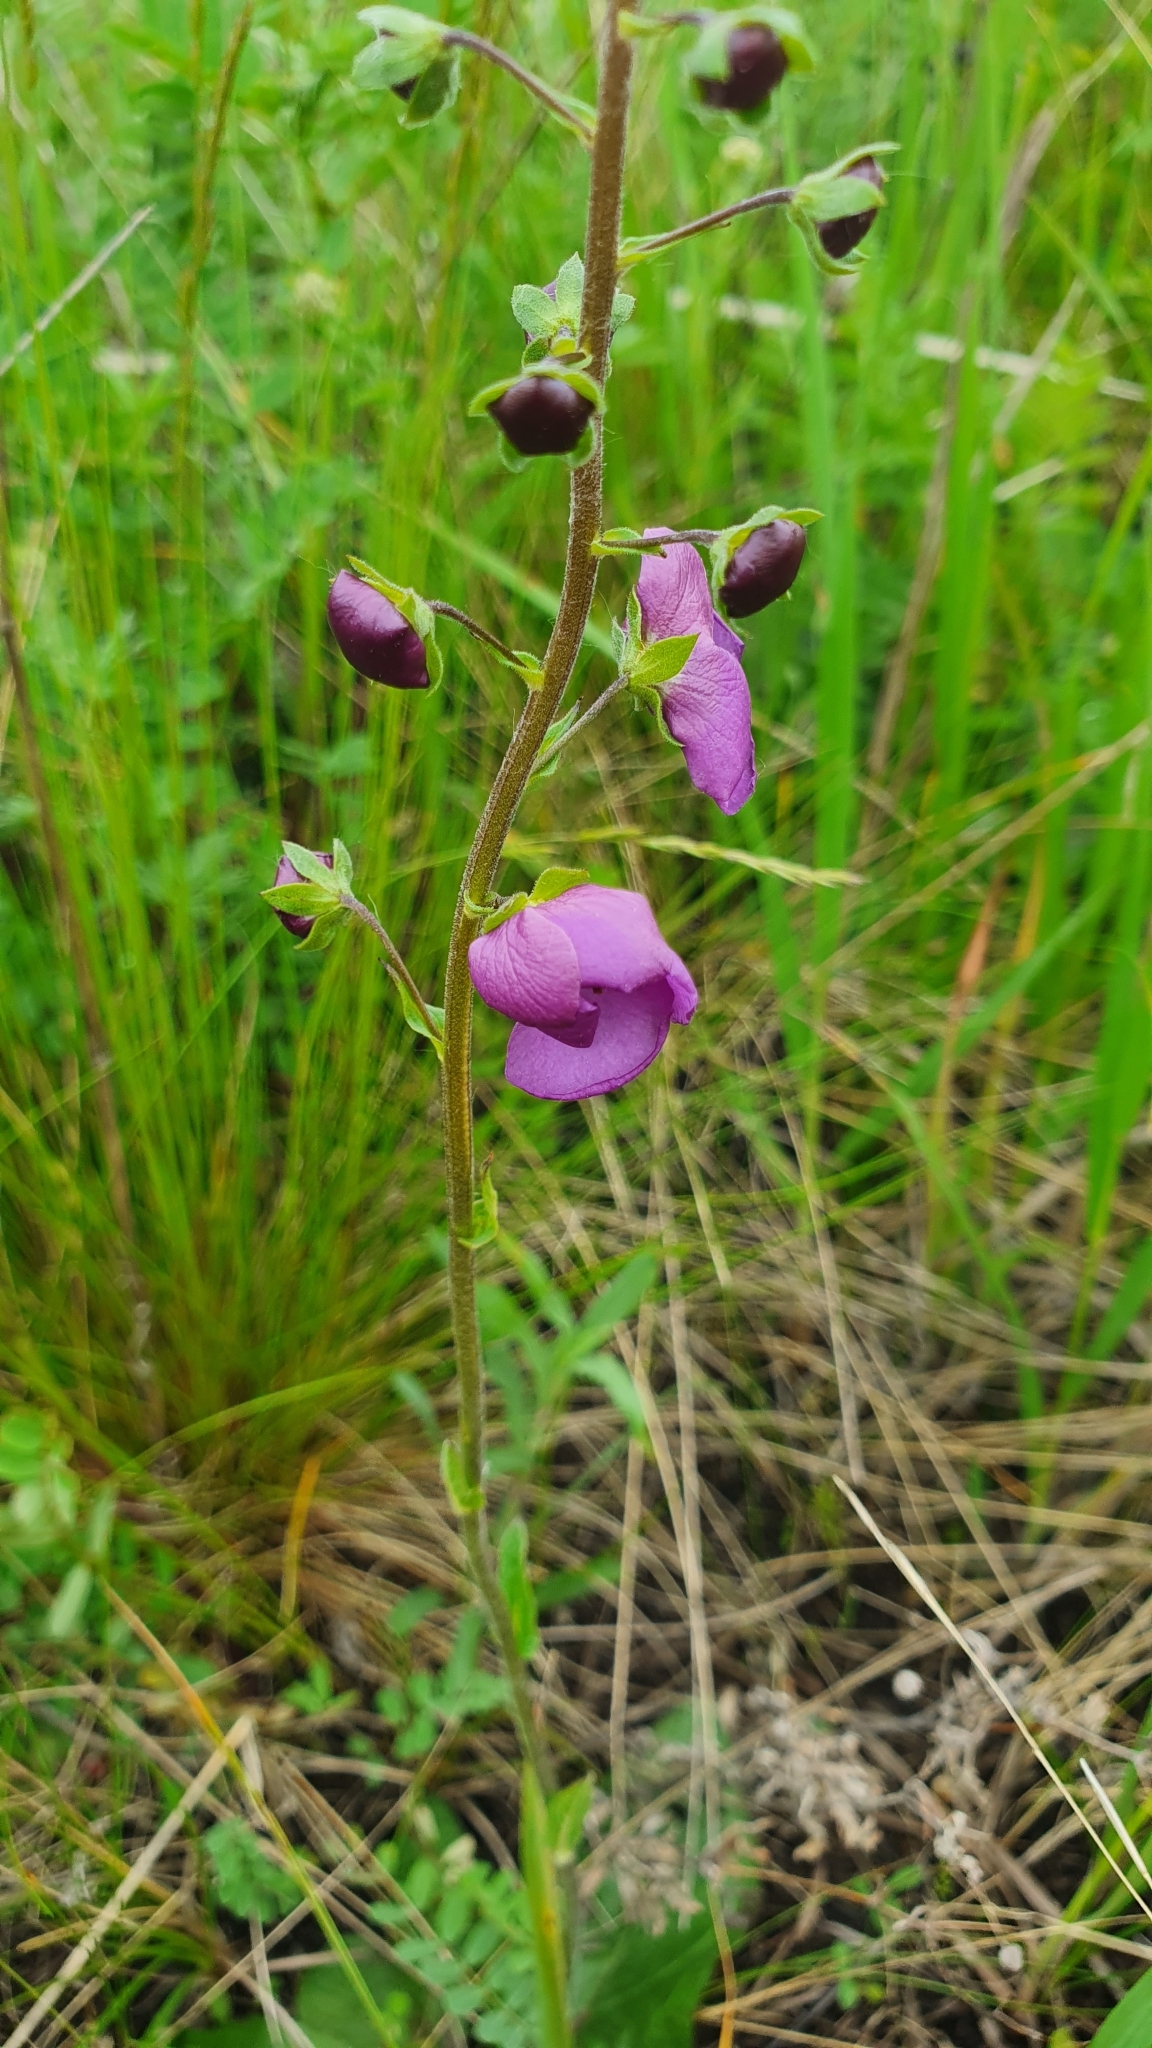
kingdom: Plantae
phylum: Tracheophyta
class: Magnoliopsida
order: Lamiales
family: Scrophulariaceae
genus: Verbascum
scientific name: Verbascum phoeniceum
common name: Purple mullein
